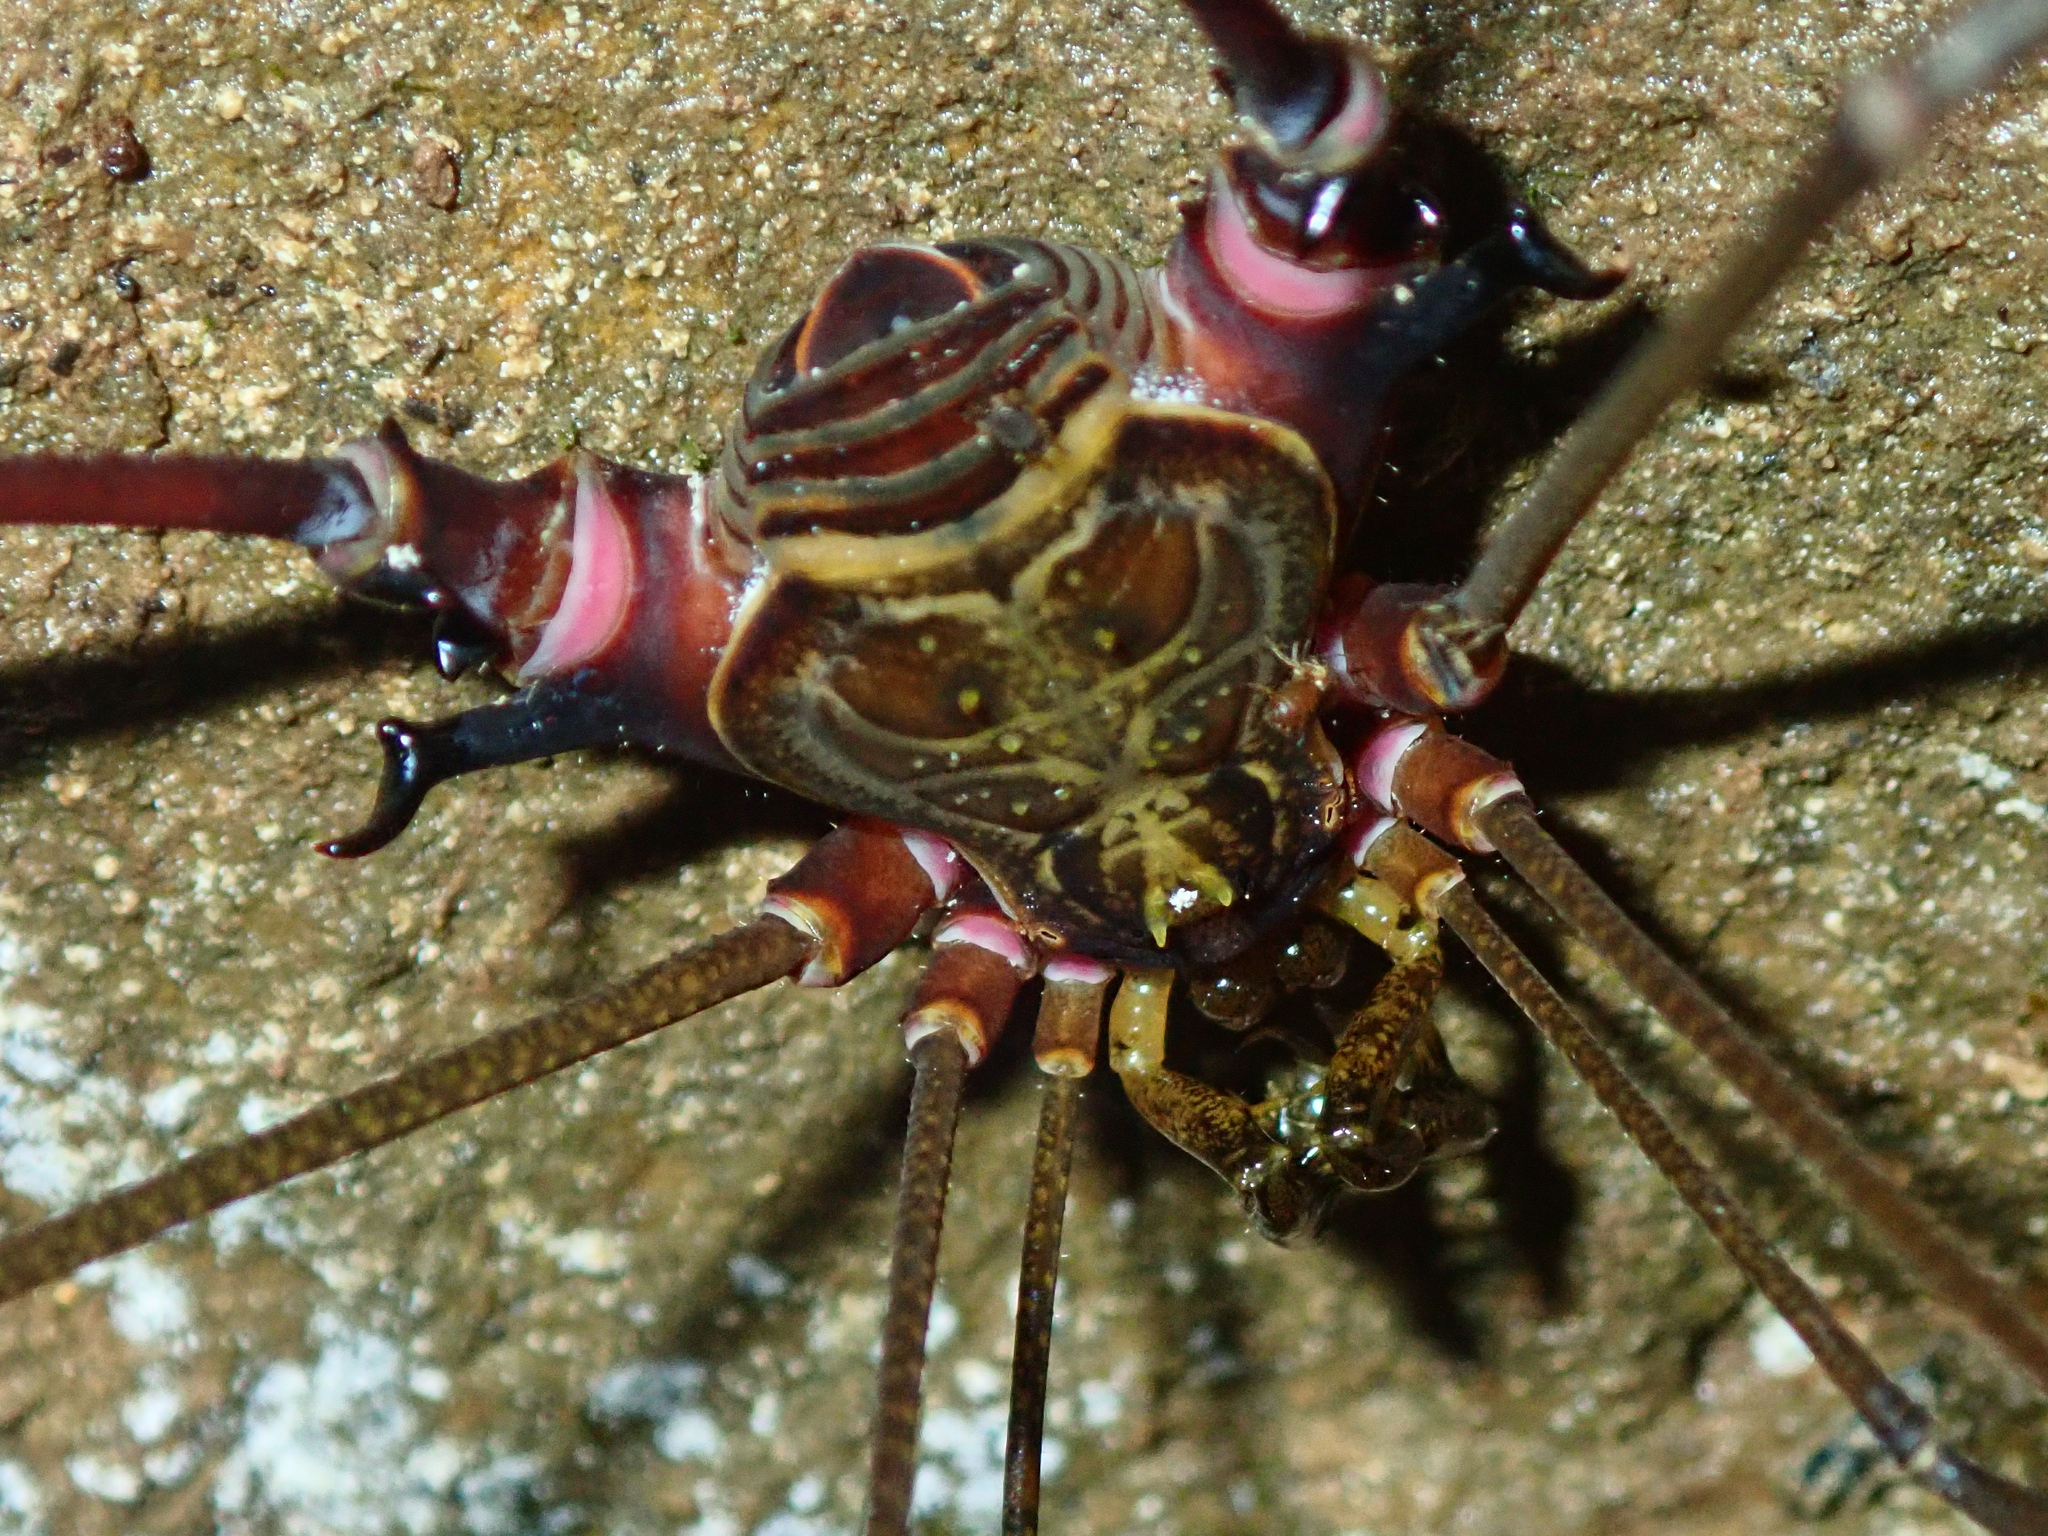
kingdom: Animalia
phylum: Arthropoda
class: Arachnida
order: Opiliones
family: Gonyleptidae
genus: Serracutisoma
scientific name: Serracutisoma inerme
